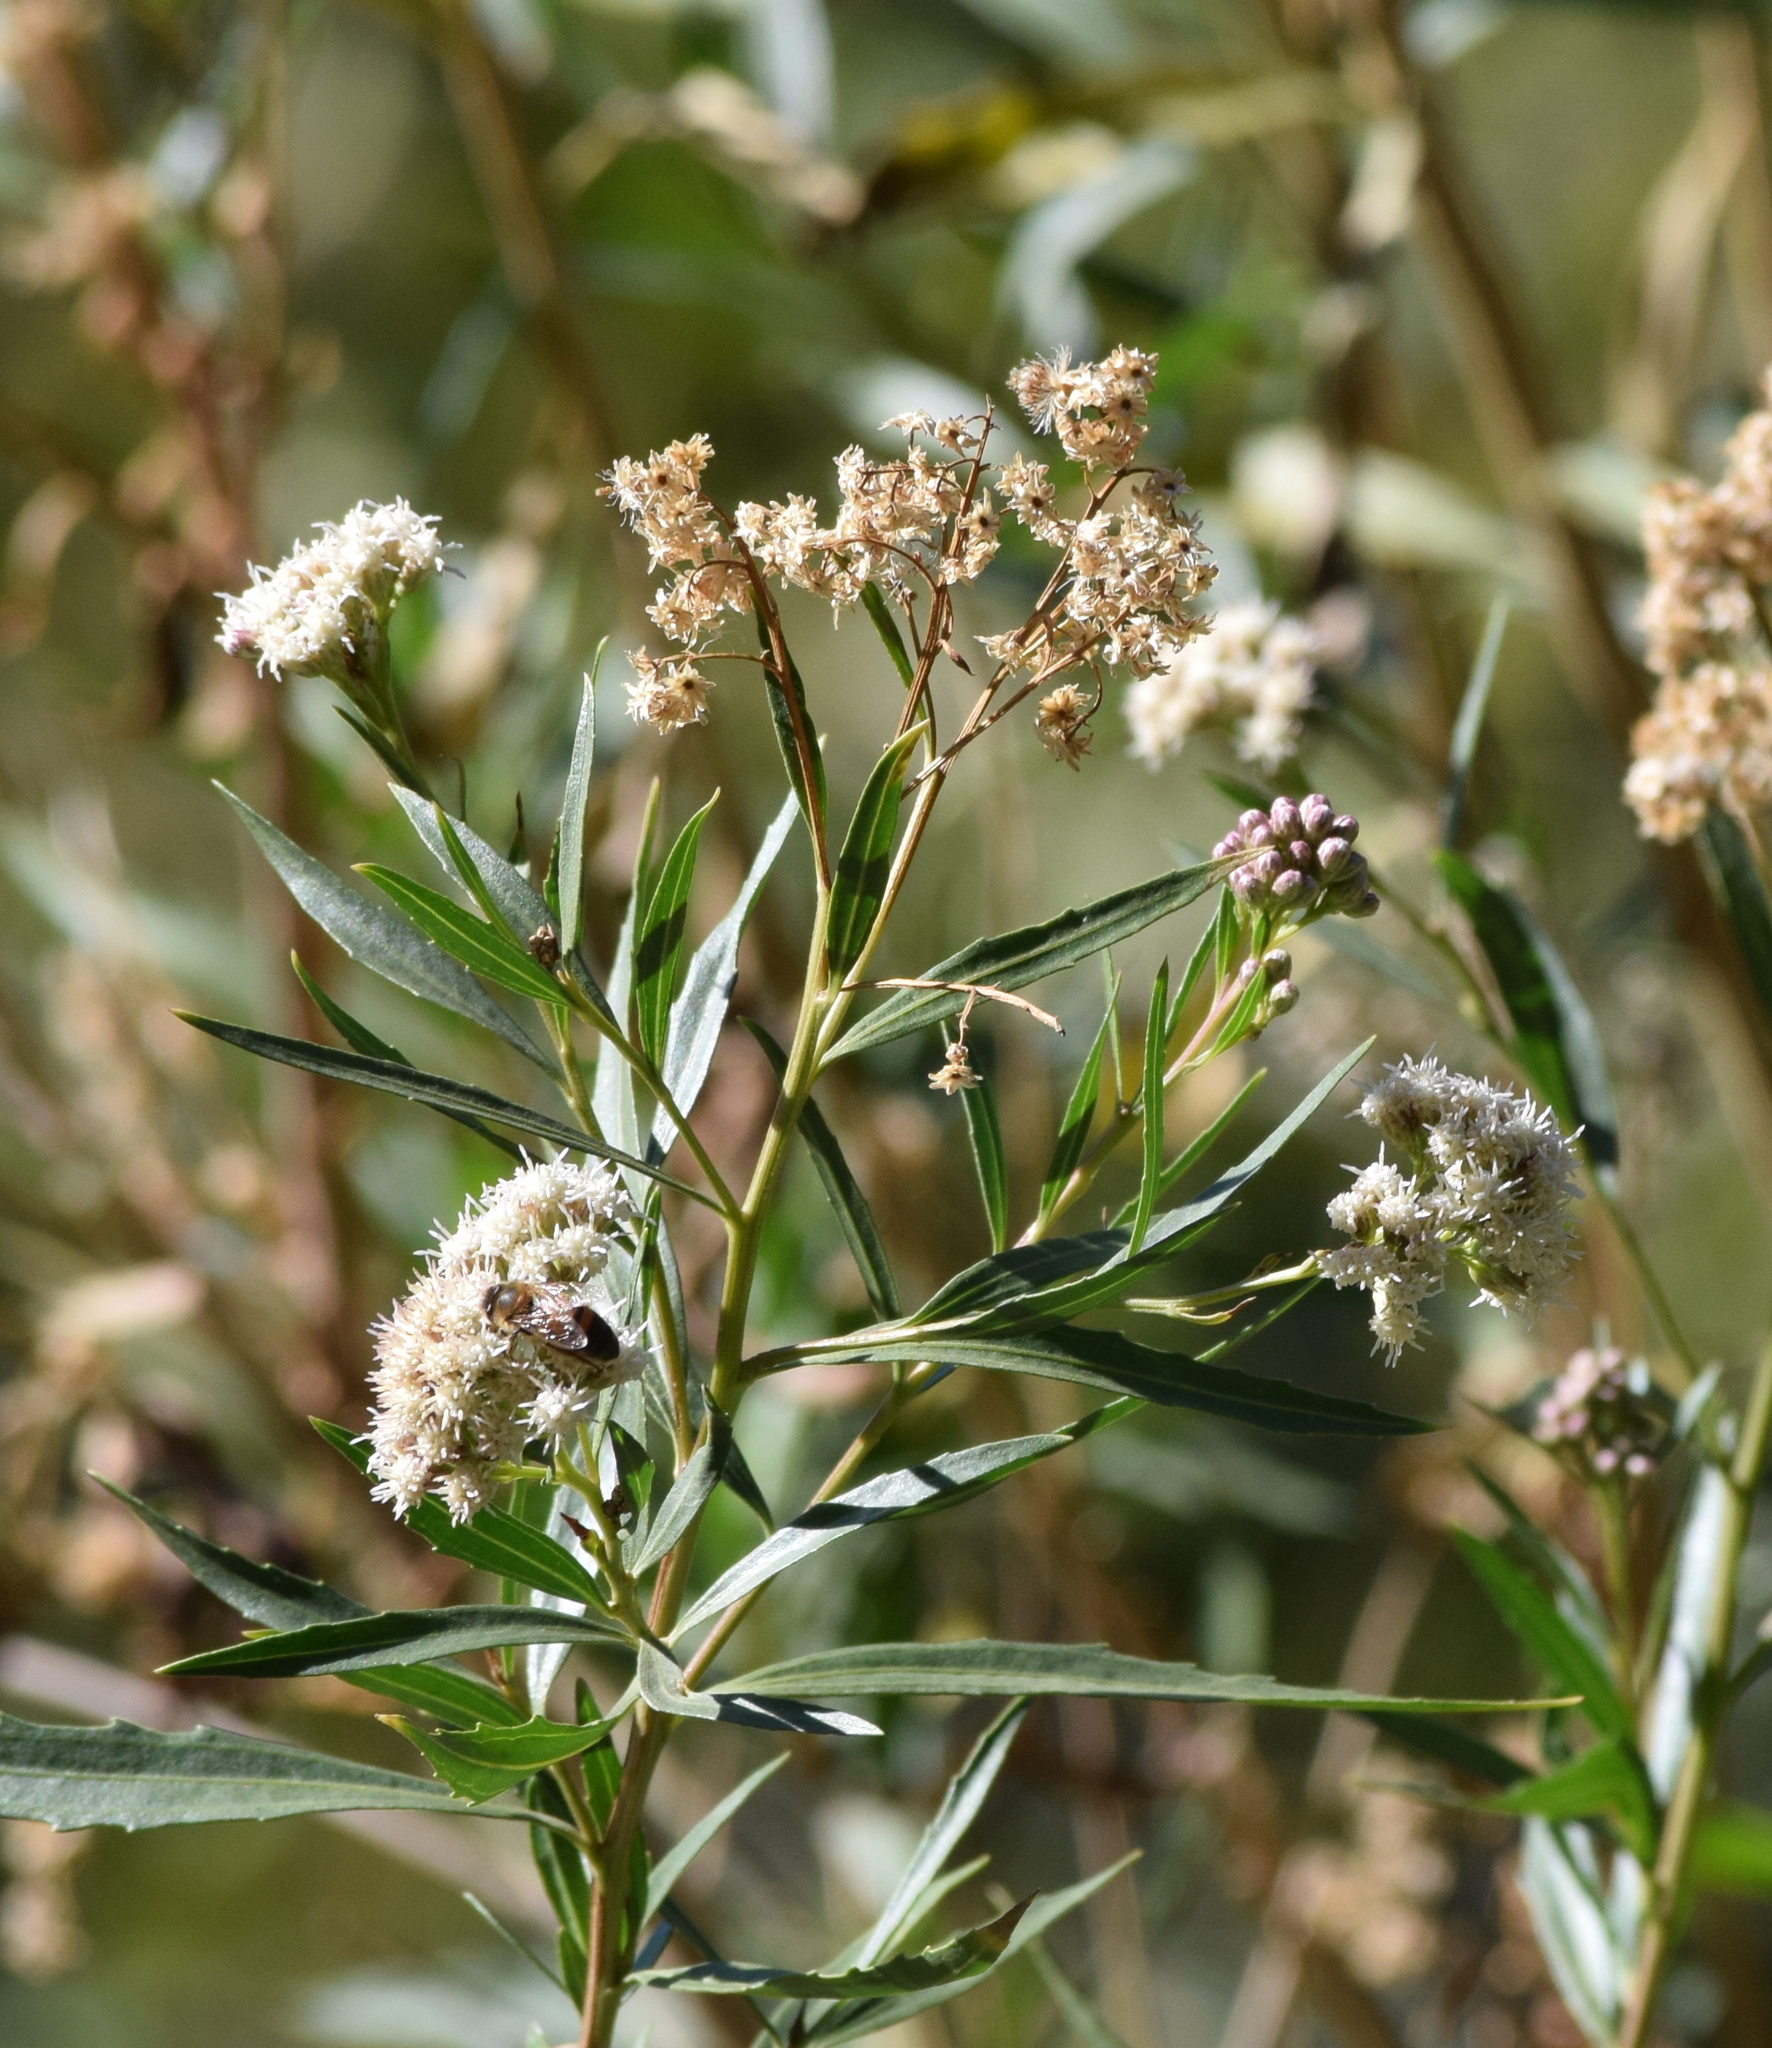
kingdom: Plantae
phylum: Tracheophyta
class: Magnoliopsida
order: Asterales
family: Asteraceae
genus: Baccharis
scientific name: Baccharis salicifolia
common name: Sticky baccharis
